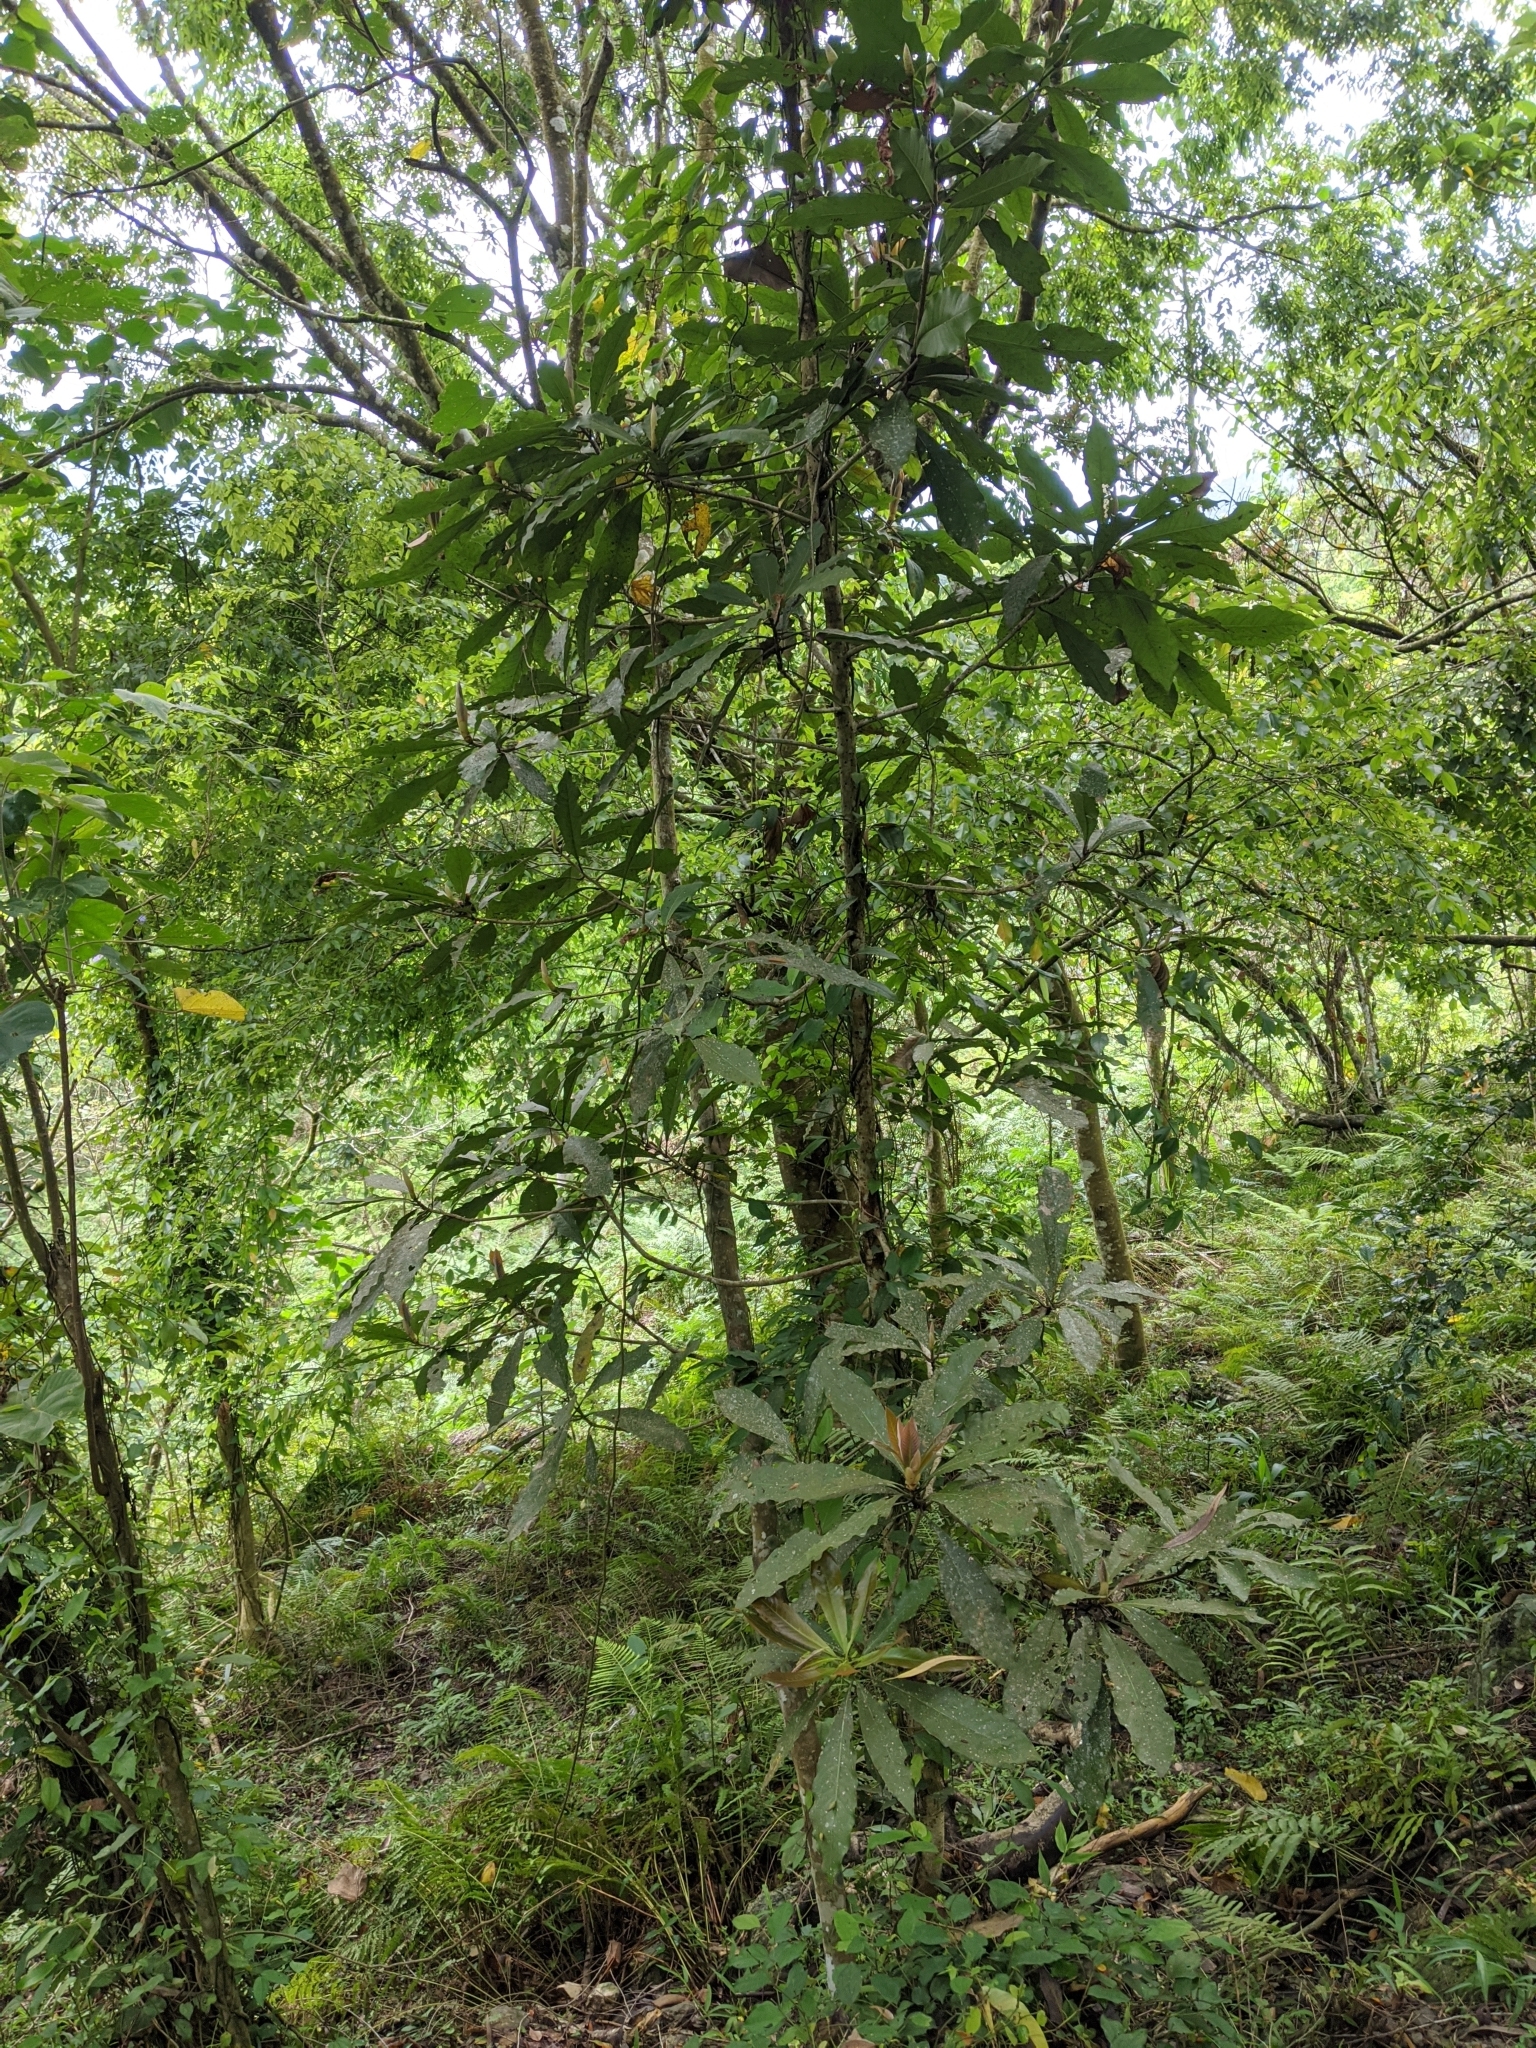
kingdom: Plantae
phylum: Tracheophyta
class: Magnoliopsida
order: Laurales
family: Lauraceae
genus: Machilus
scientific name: Machilus japonica
